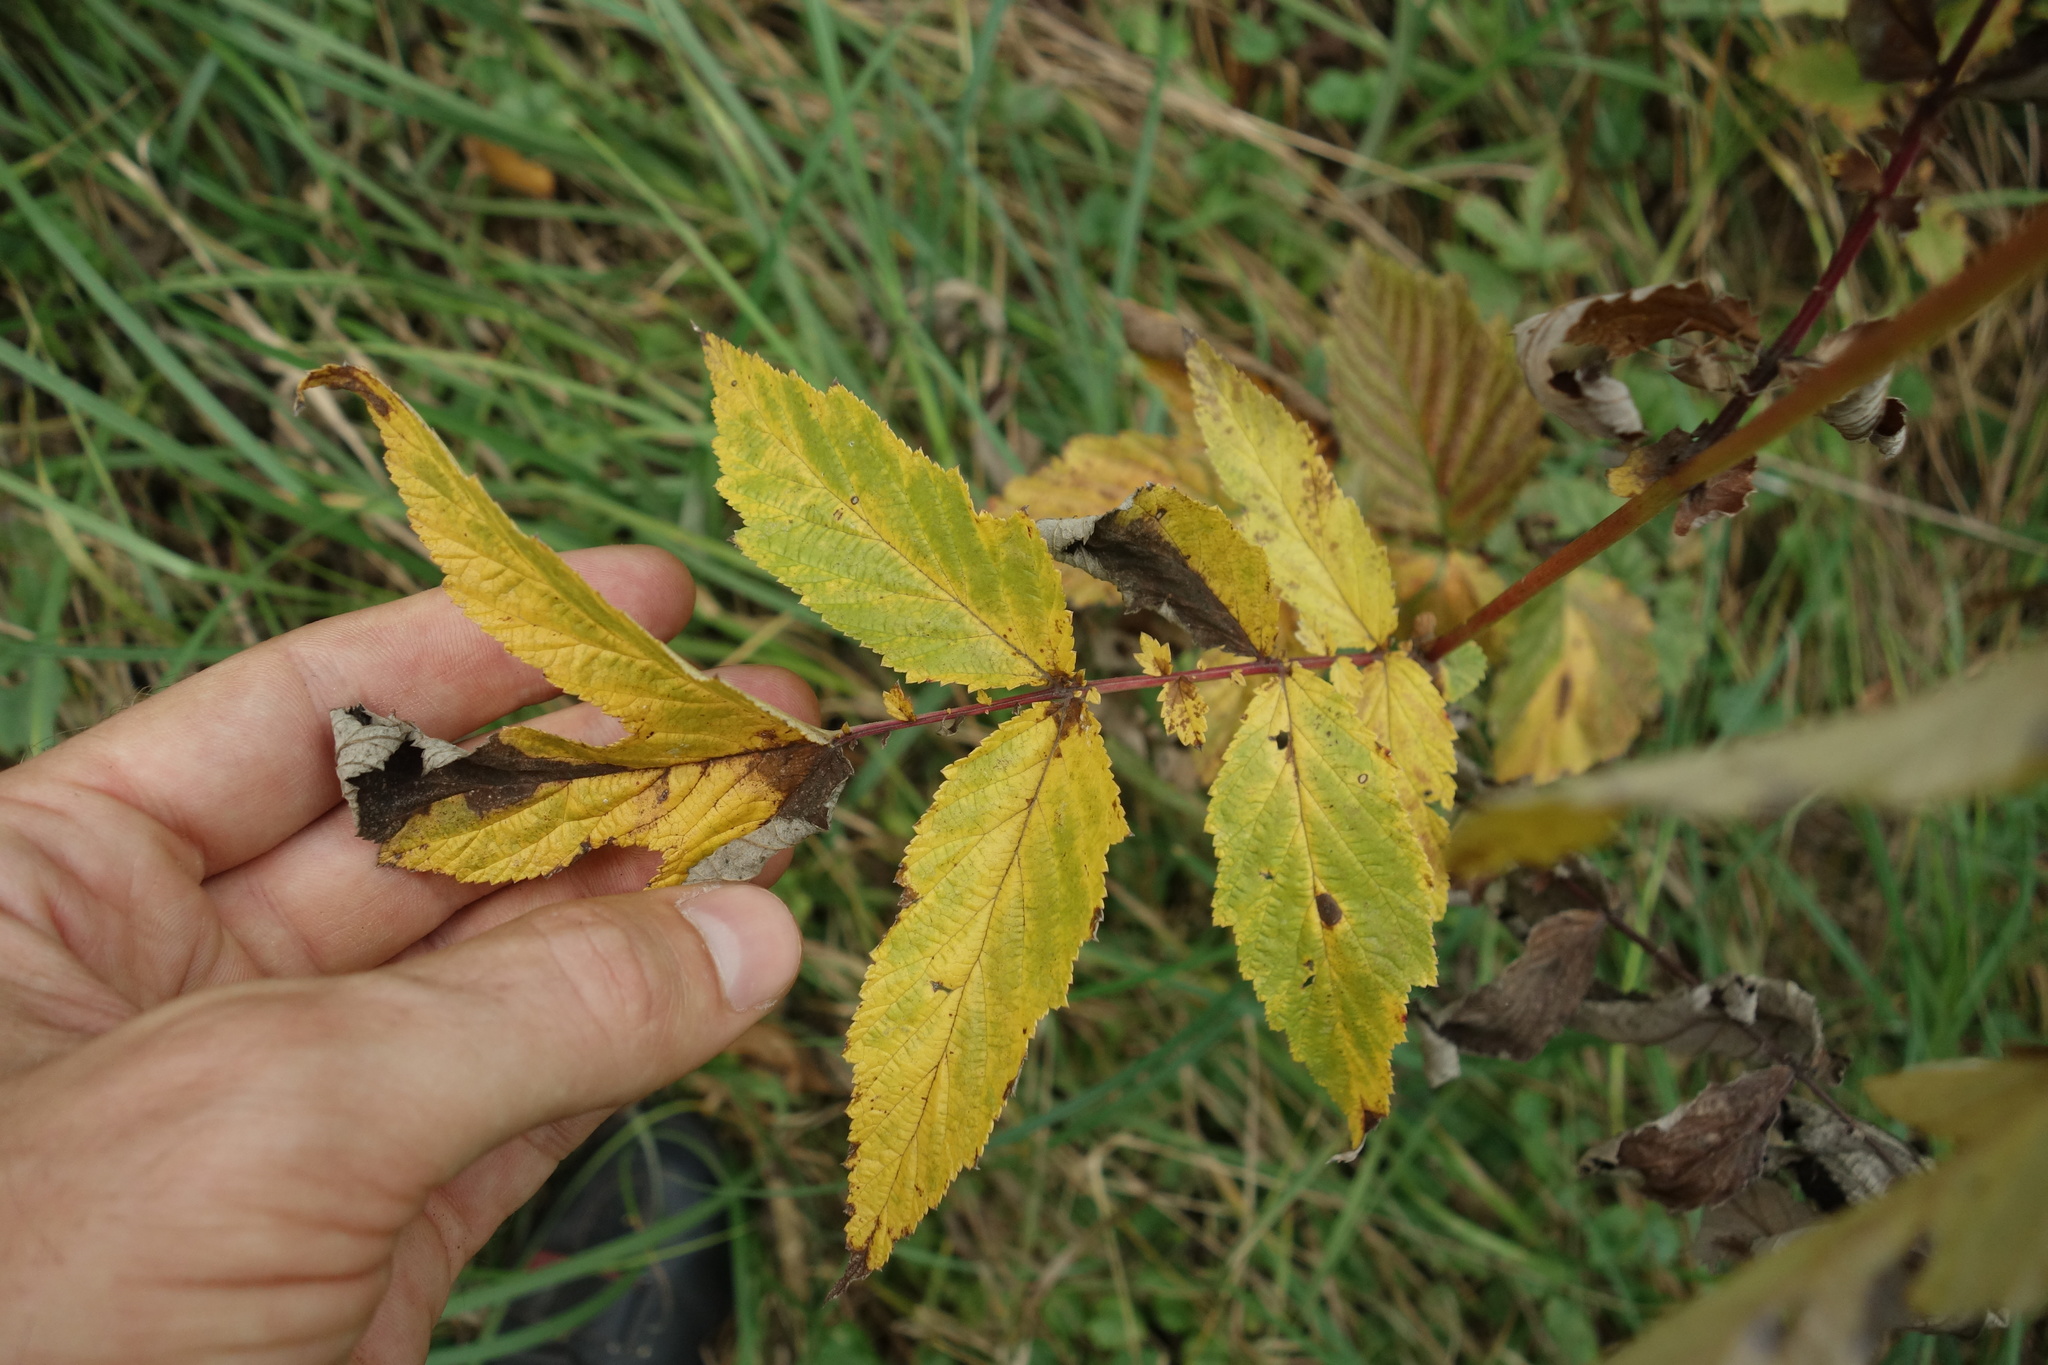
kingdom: Plantae
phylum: Tracheophyta
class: Magnoliopsida
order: Rosales
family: Rosaceae
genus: Filipendula
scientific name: Filipendula ulmaria
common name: Meadowsweet
